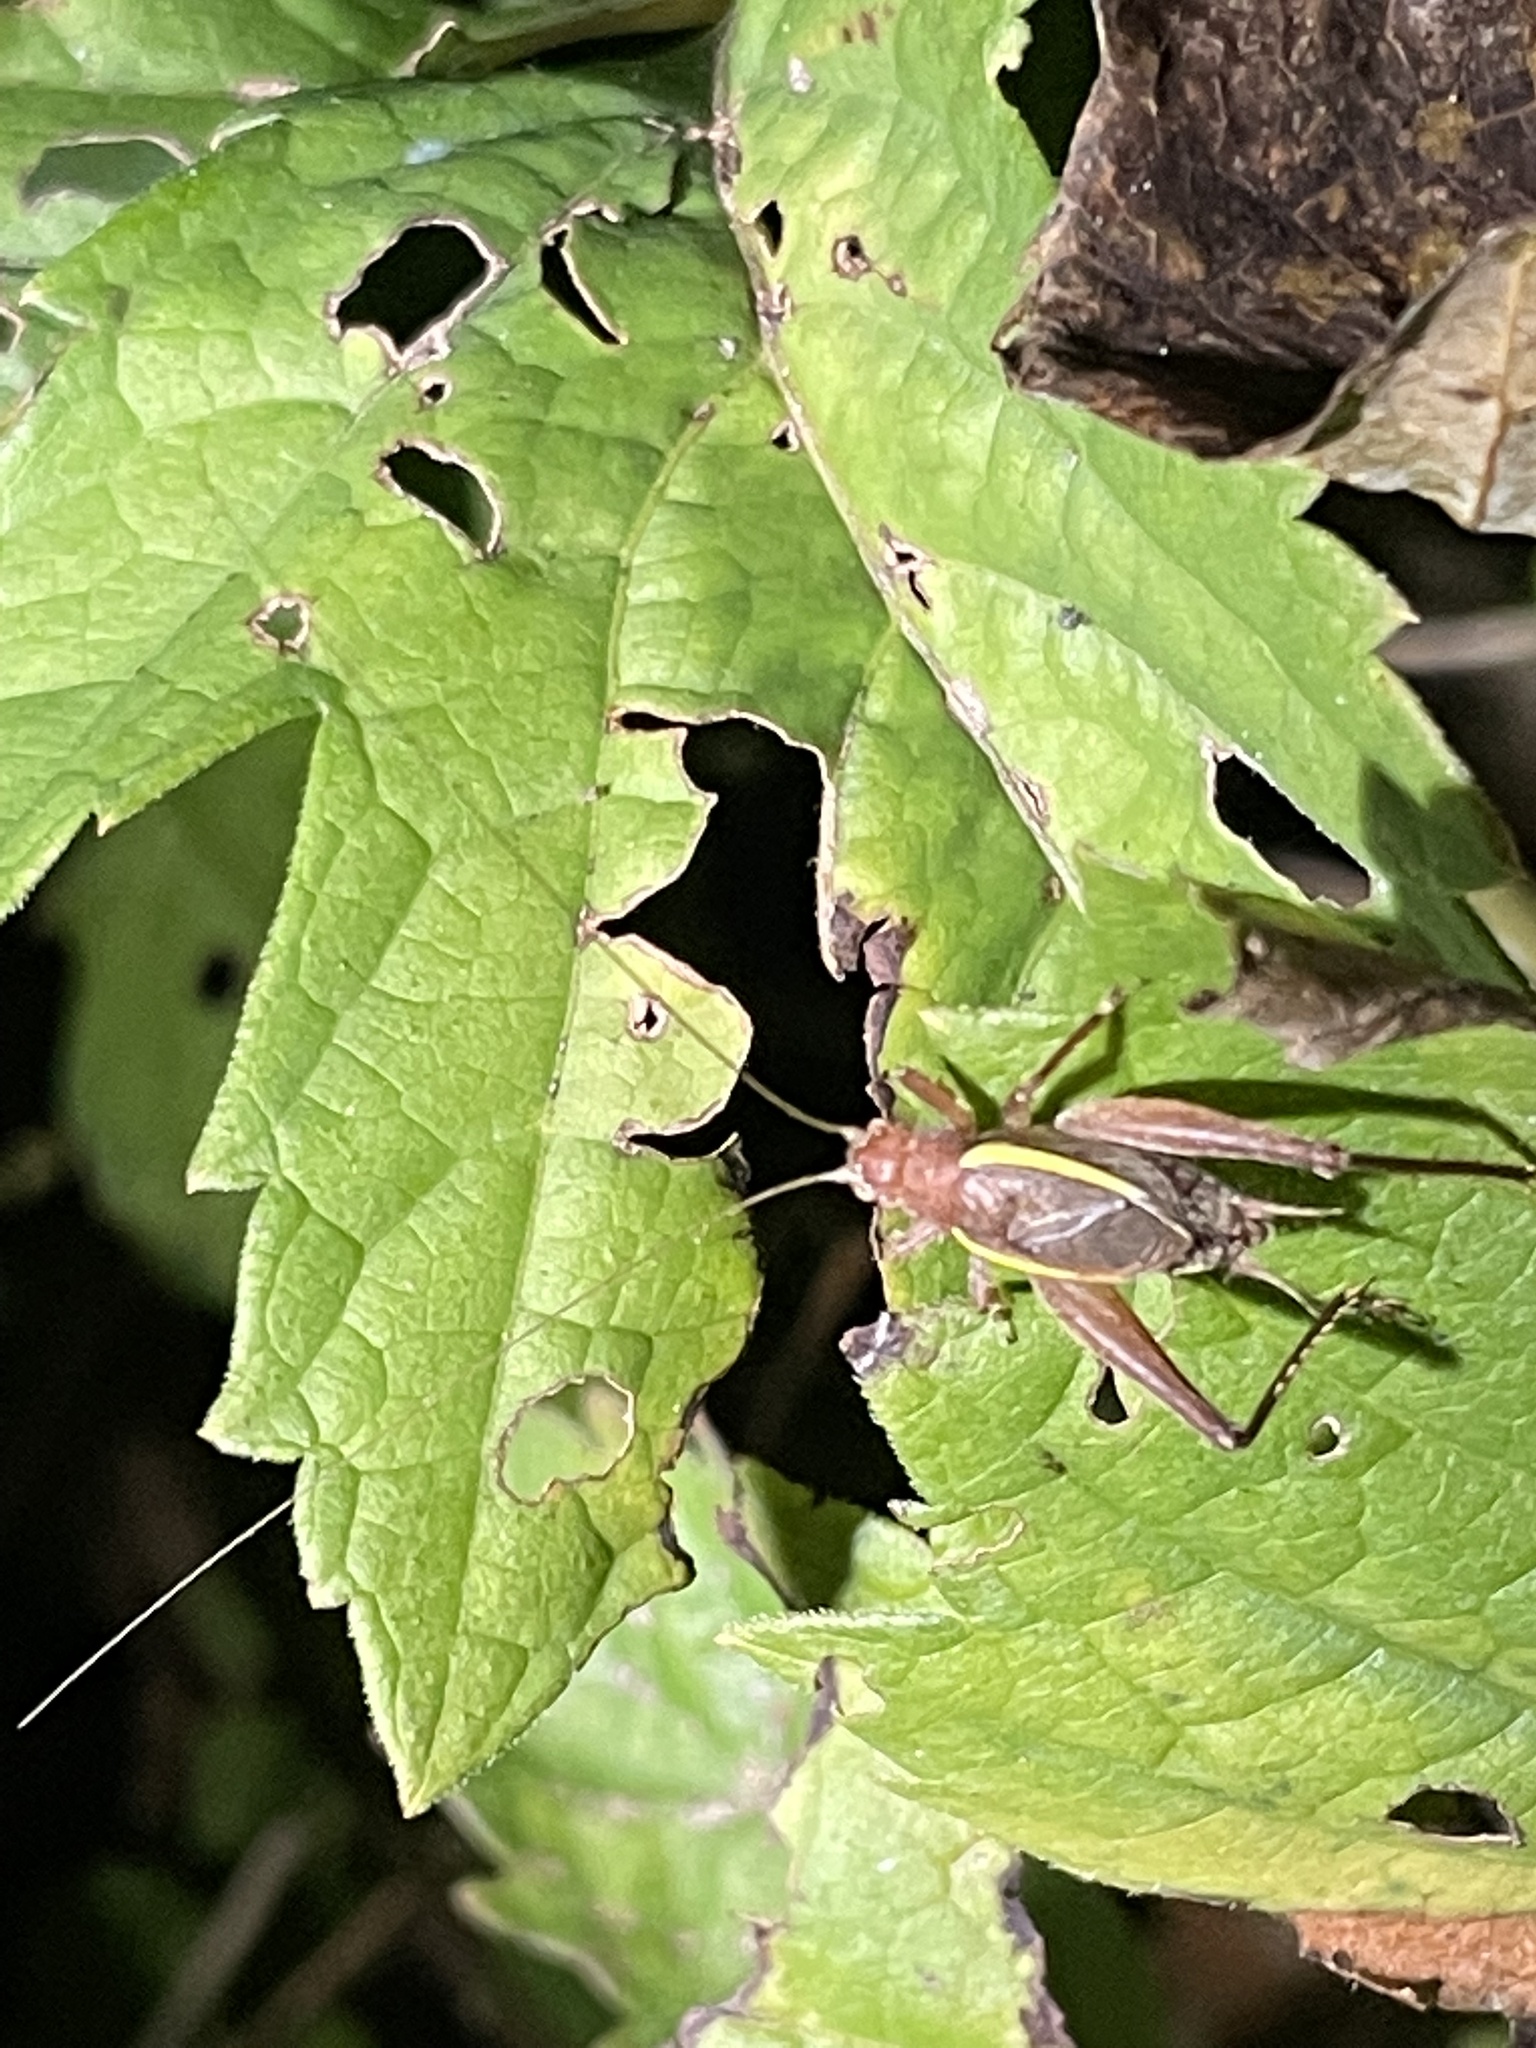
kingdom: Animalia
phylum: Arthropoda
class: Insecta
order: Orthoptera
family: Gryllidae
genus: Hapithus
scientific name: Hapithus agitator
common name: Restless bush cricket
